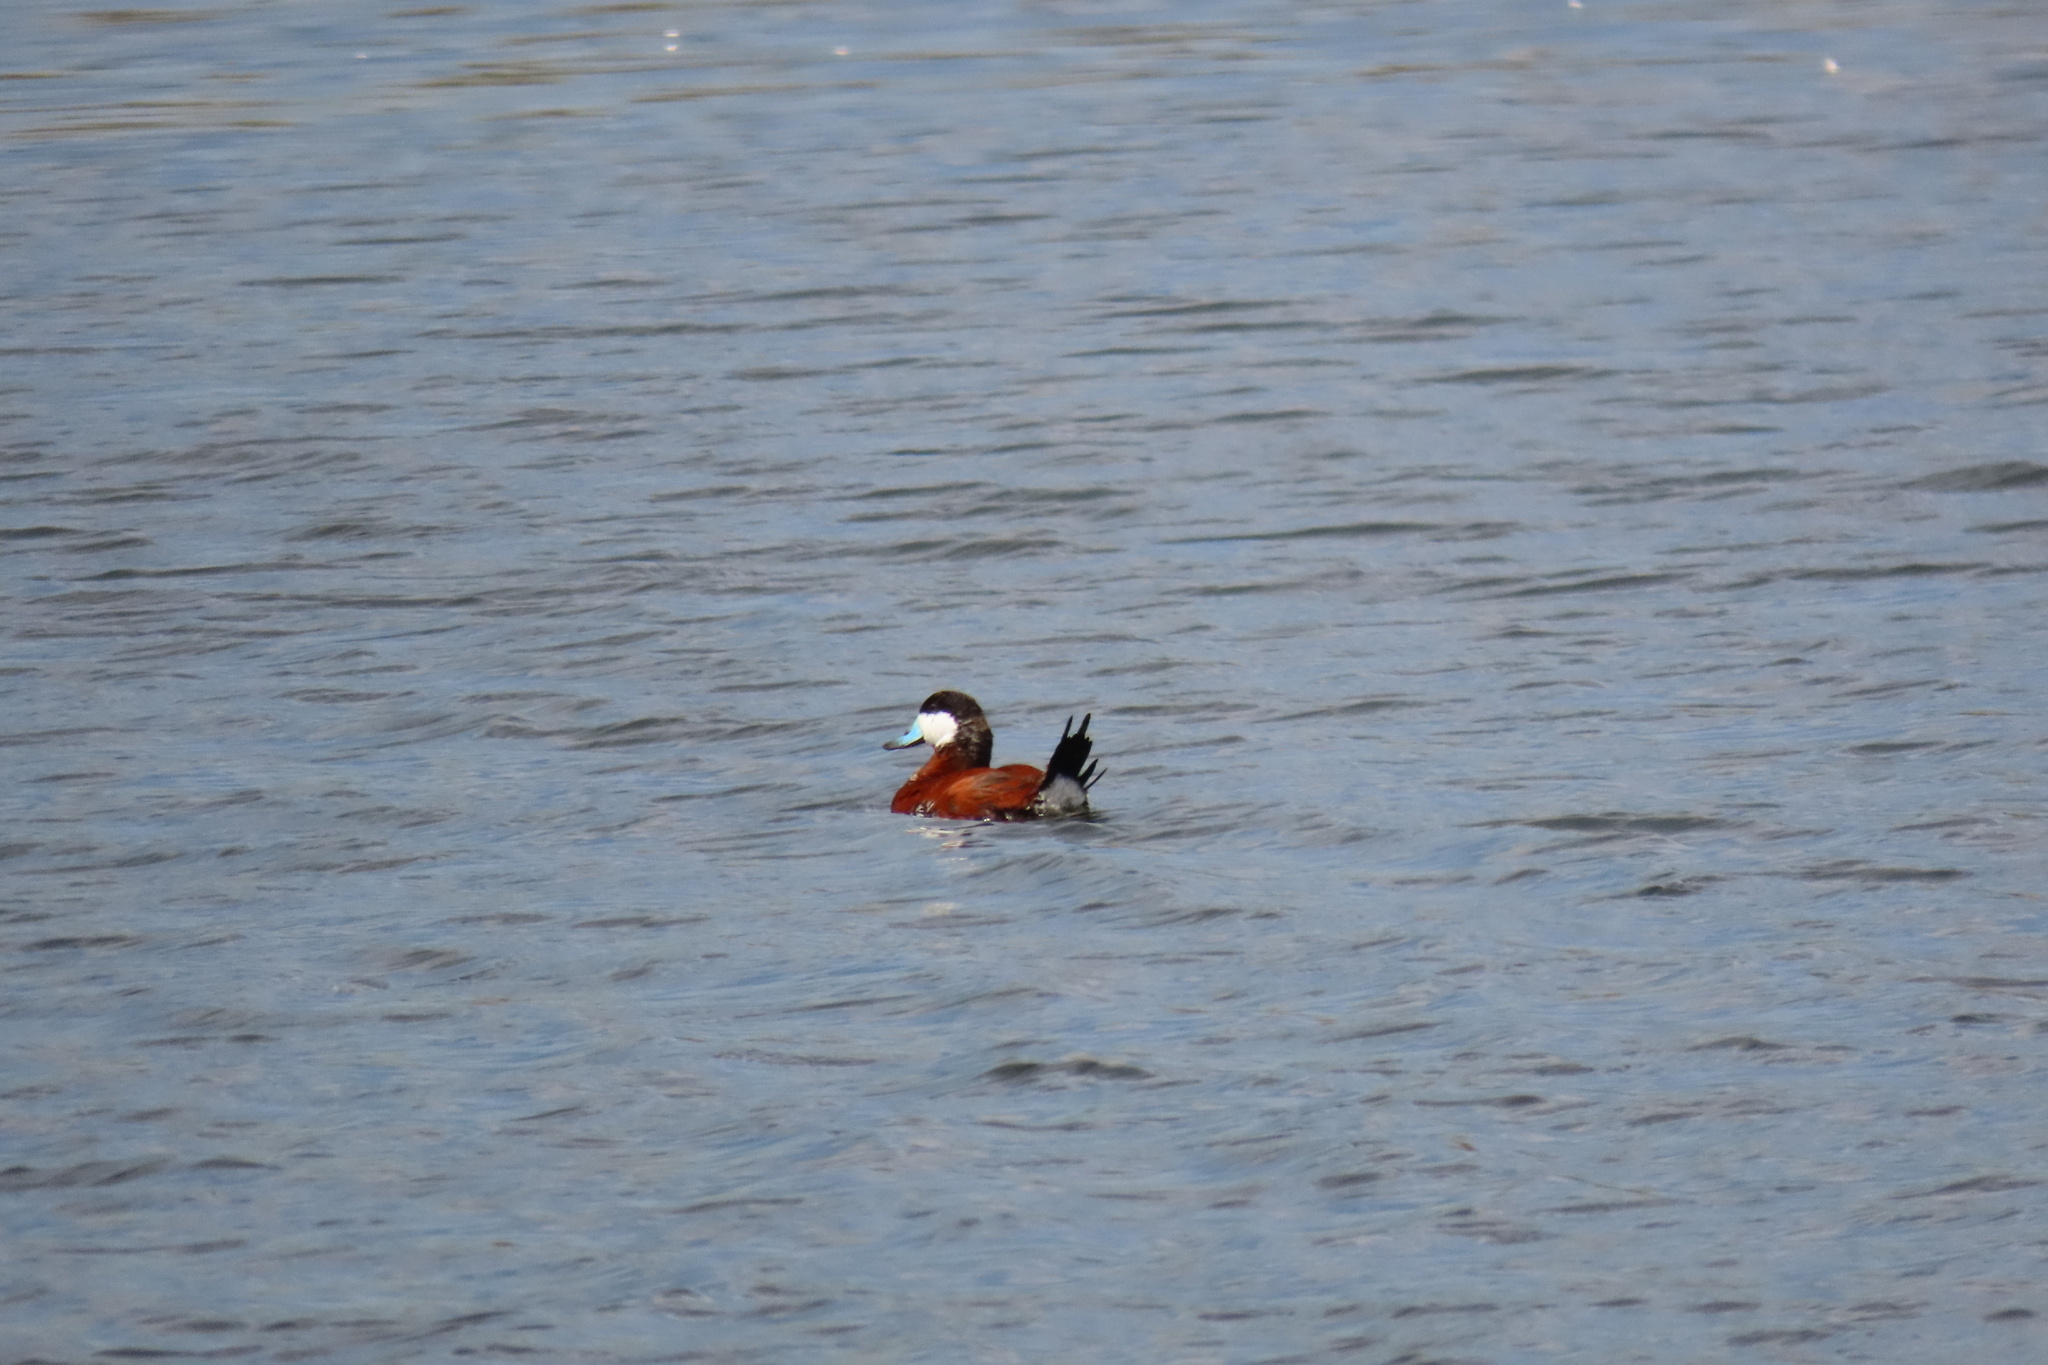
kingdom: Animalia
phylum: Chordata
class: Aves
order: Anseriformes
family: Anatidae
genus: Oxyura
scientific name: Oxyura jamaicensis
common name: Ruddy duck
